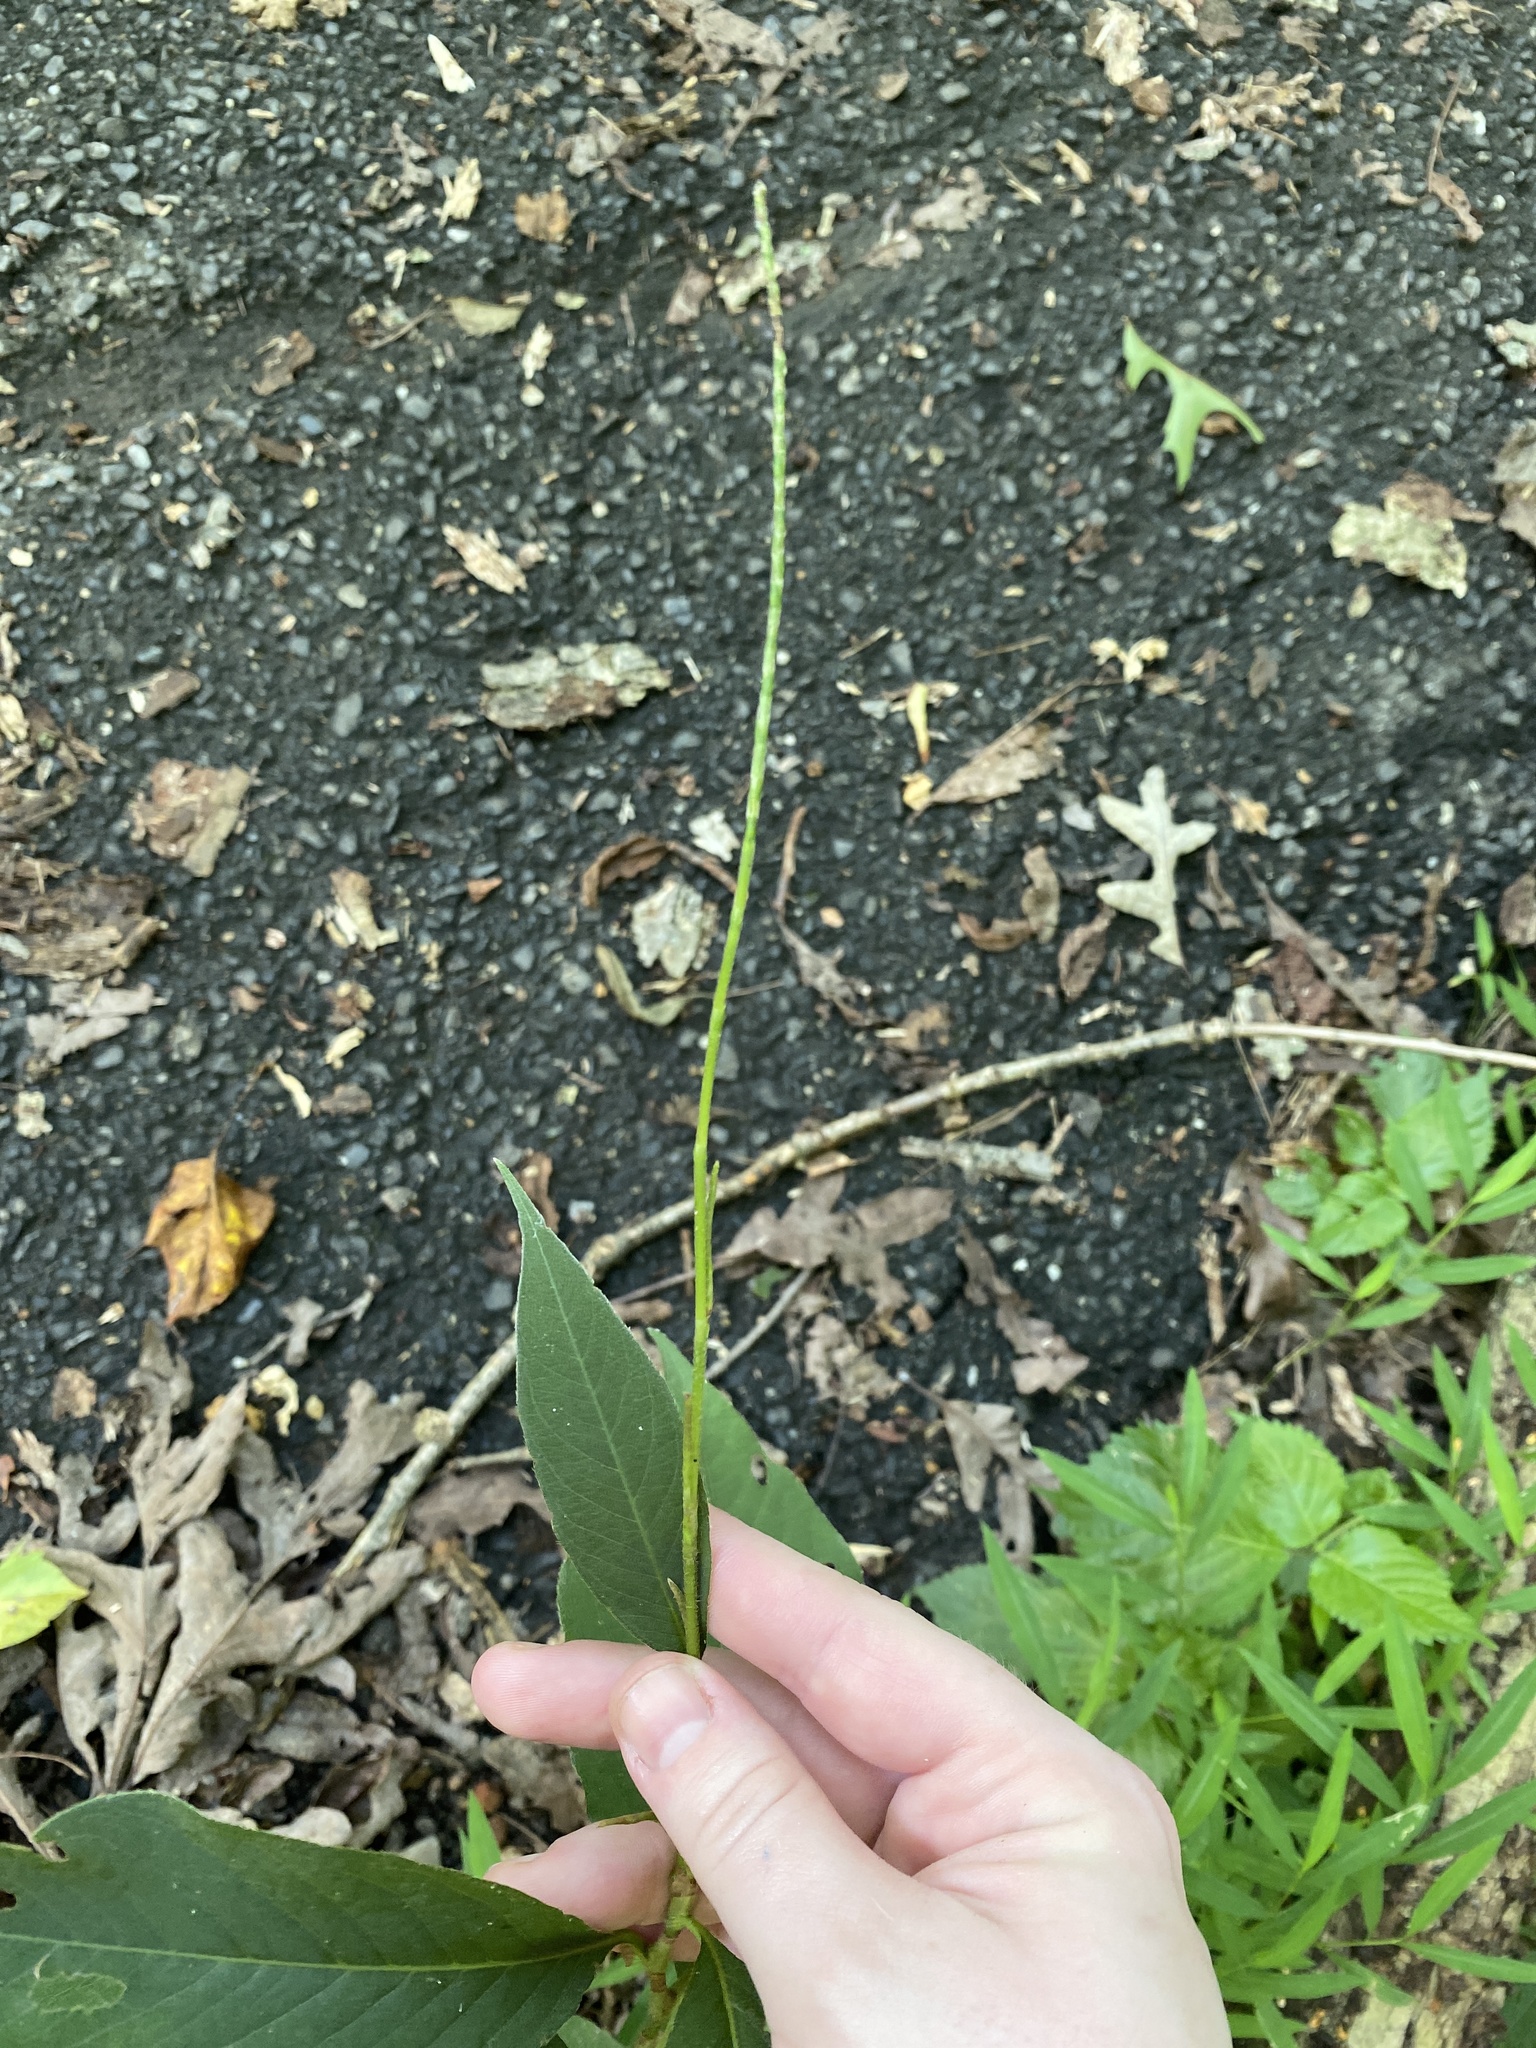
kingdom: Plantae
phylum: Tracheophyta
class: Magnoliopsida
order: Caryophyllales
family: Polygonaceae
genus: Persicaria
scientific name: Persicaria virginiana
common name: Jumpseed
